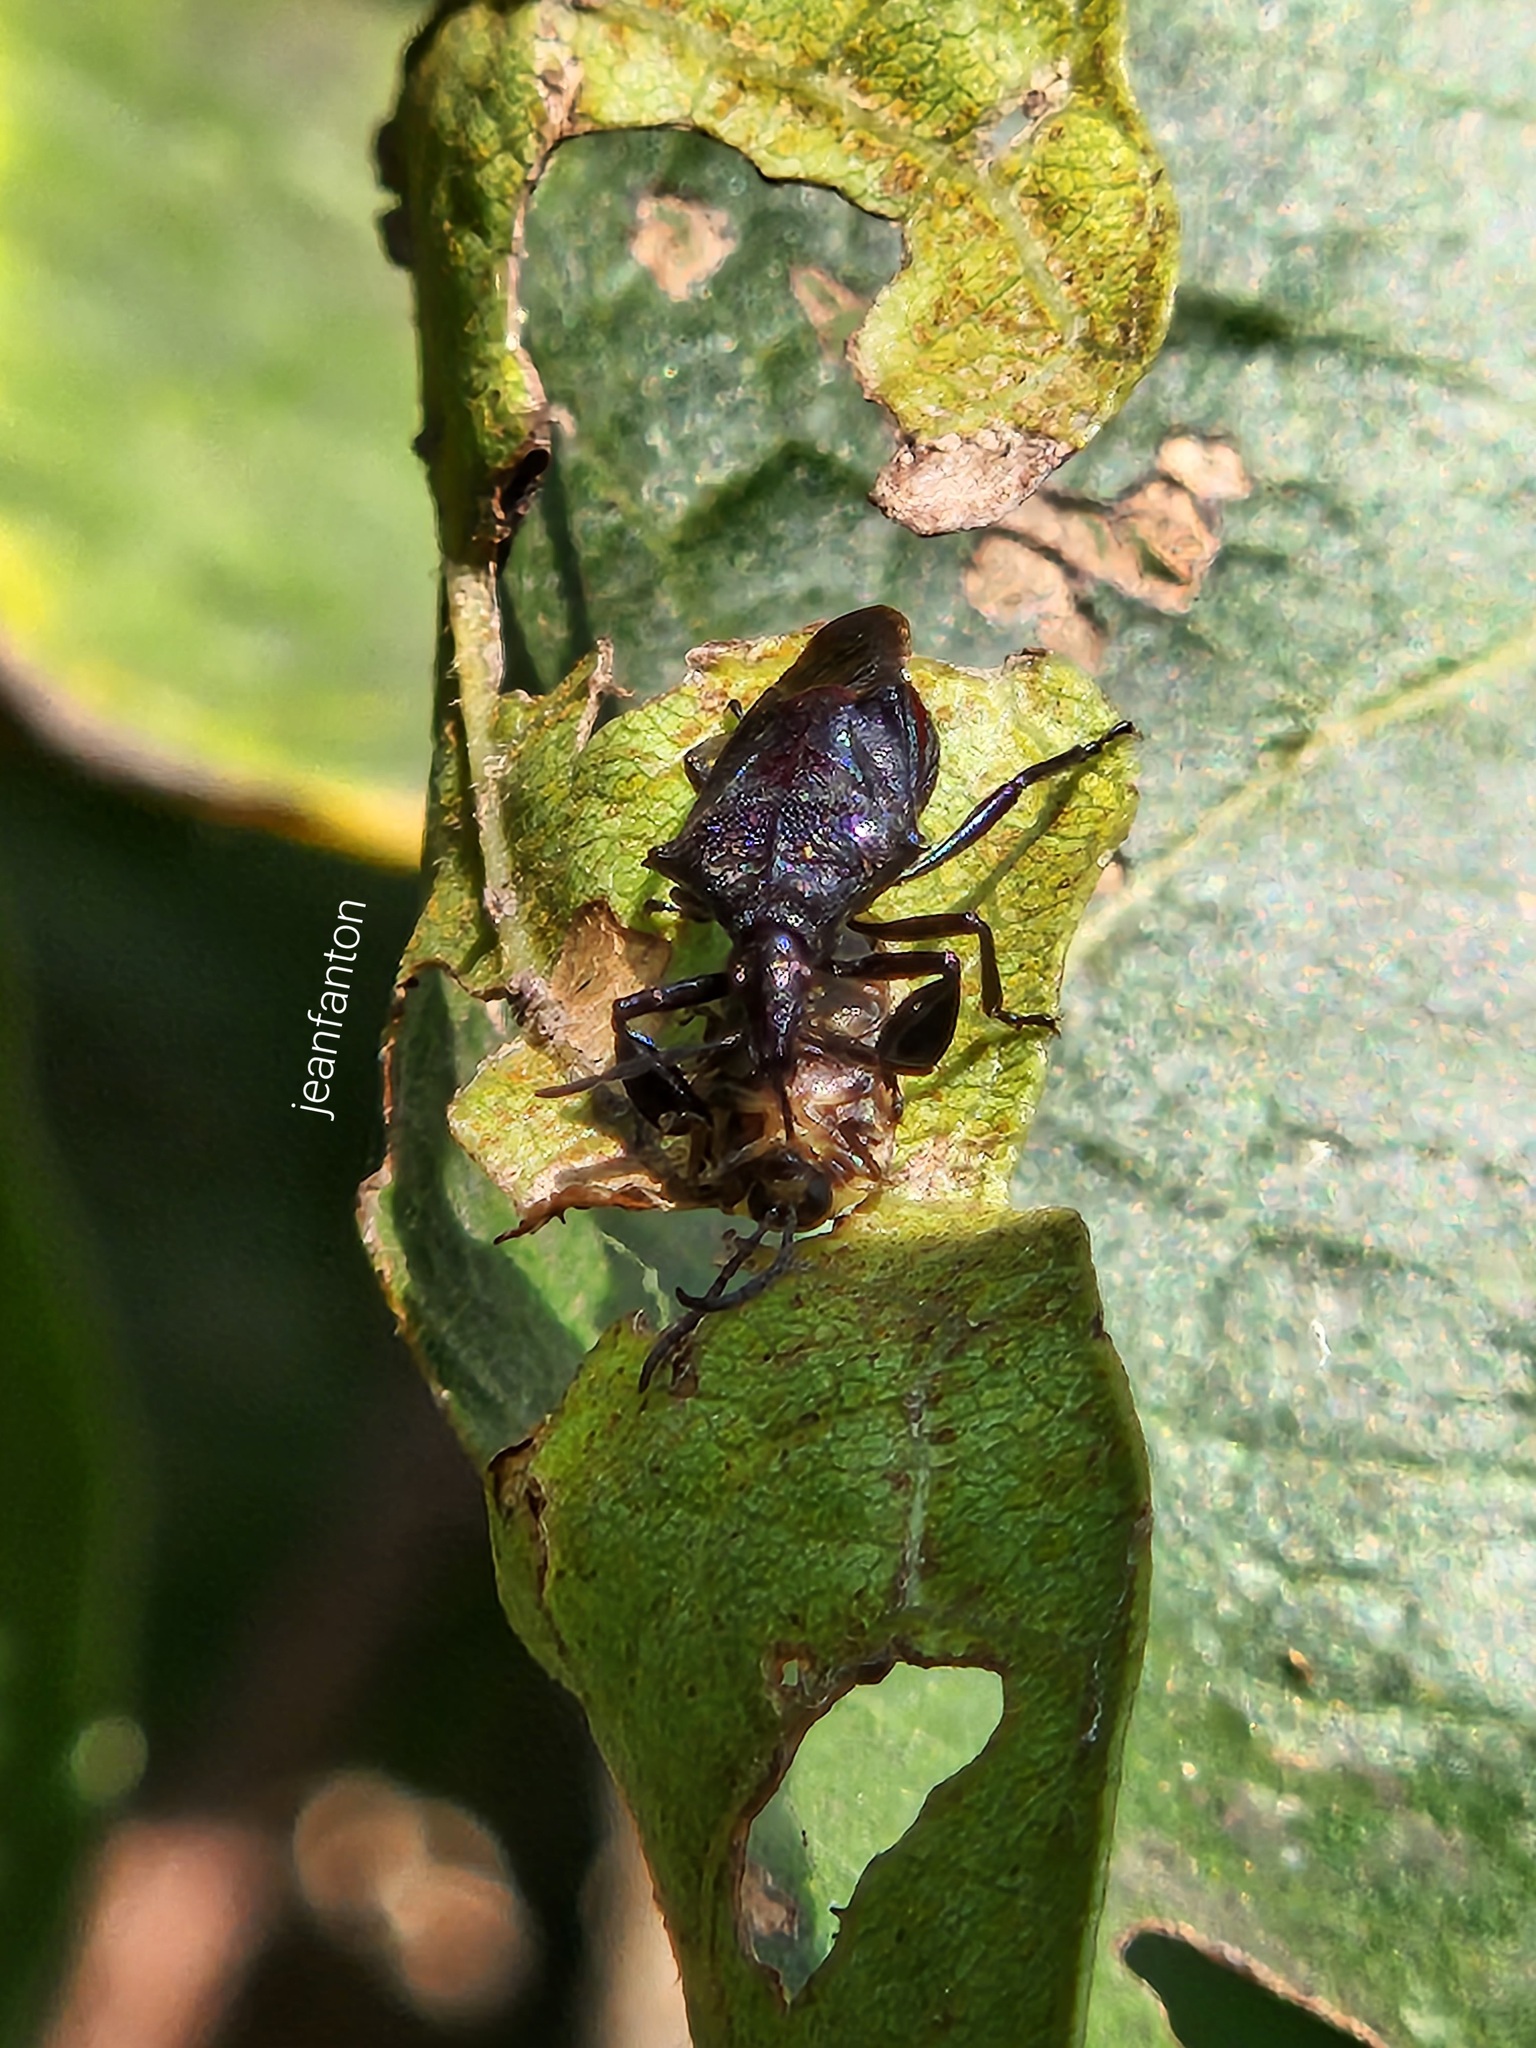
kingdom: Animalia
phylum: Arthropoda
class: Insecta
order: Hemiptera
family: Pentatomidae
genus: Heteroscelis
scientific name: Heteroscelis servillii
